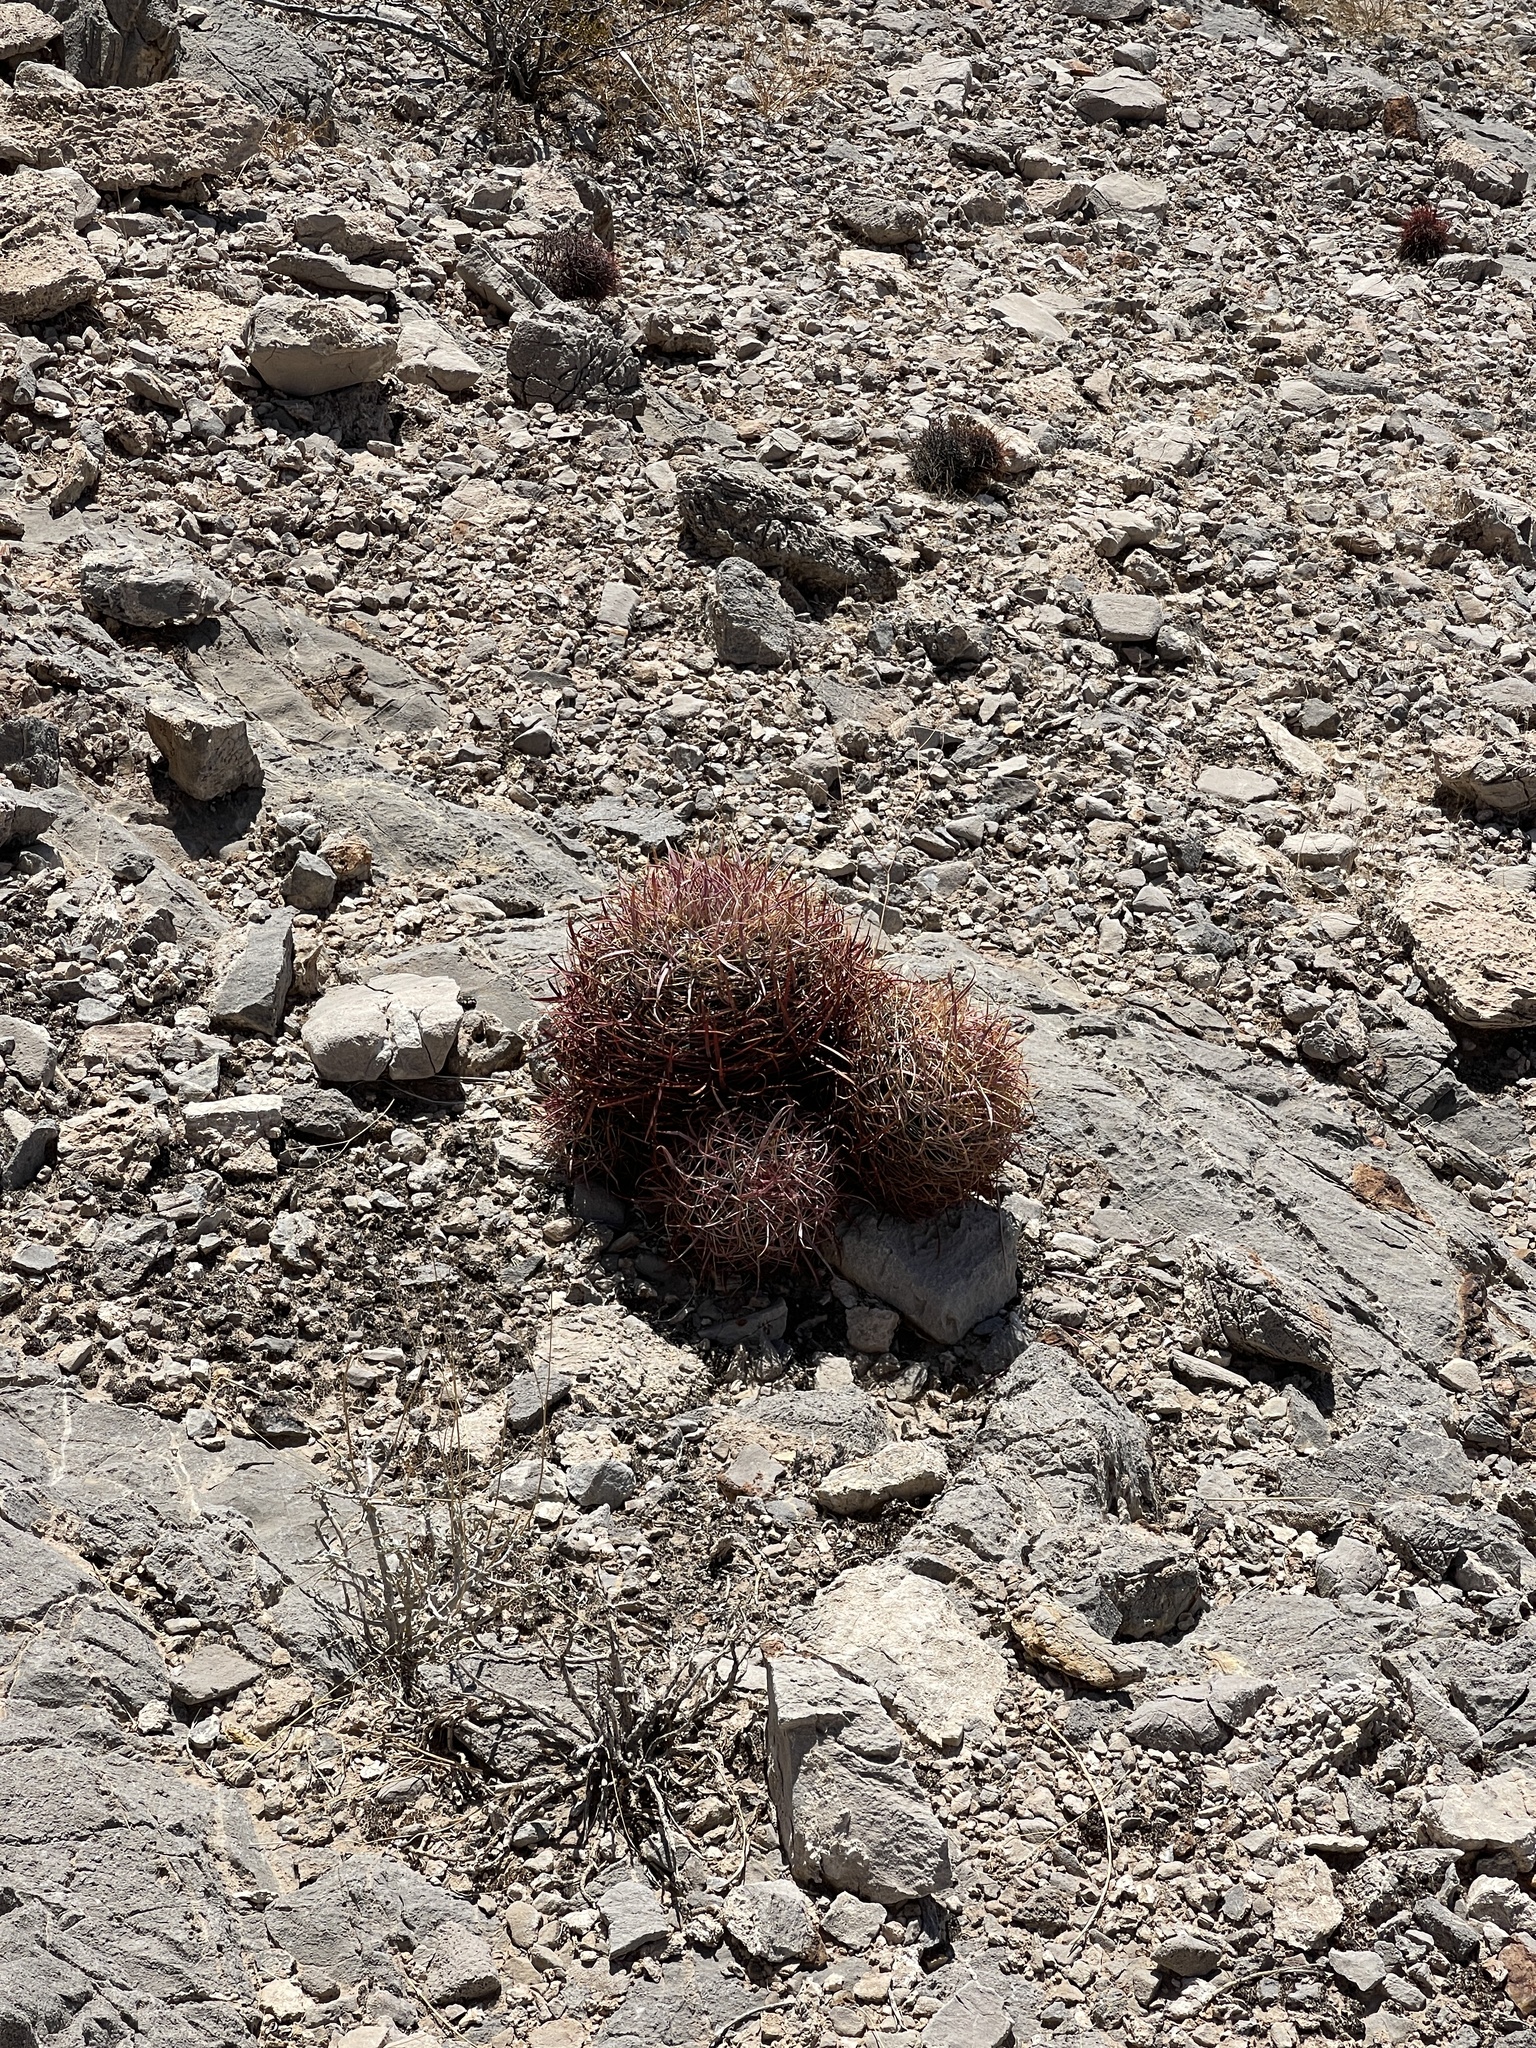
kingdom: Plantae
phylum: Tracheophyta
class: Magnoliopsida
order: Caryophyllales
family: Cactaceae
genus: Ferocactus
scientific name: Ferocactus cylindraceus
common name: California barrel cactus
